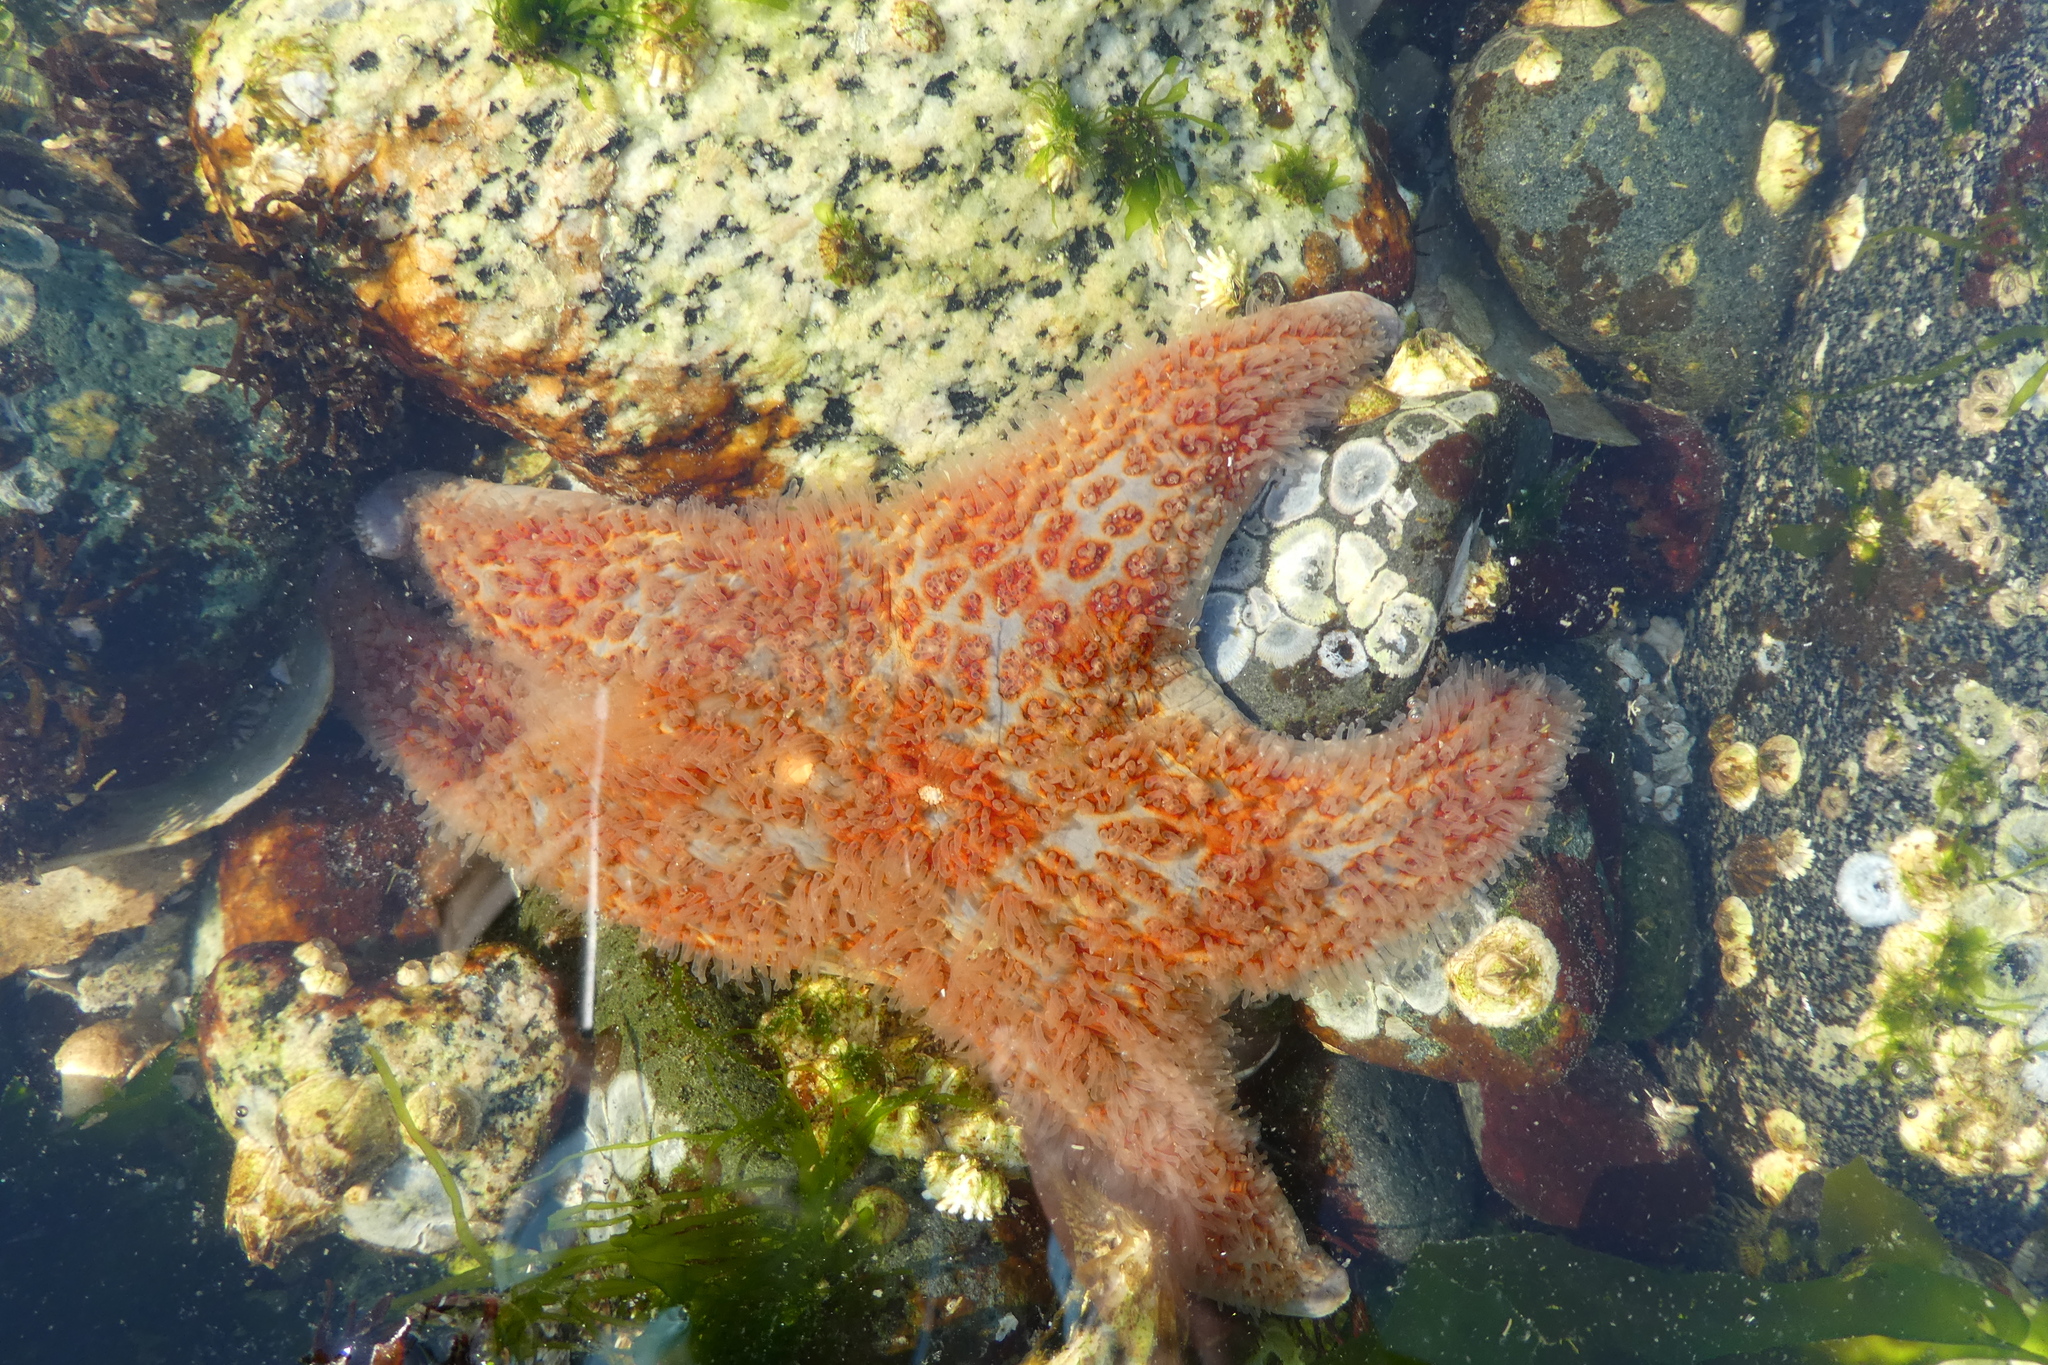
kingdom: Animalia
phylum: Echinodermata
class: Asteroidea
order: Valvatida
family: Asteropseidae
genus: Dermasterias
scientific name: Dermasterias imbricata
